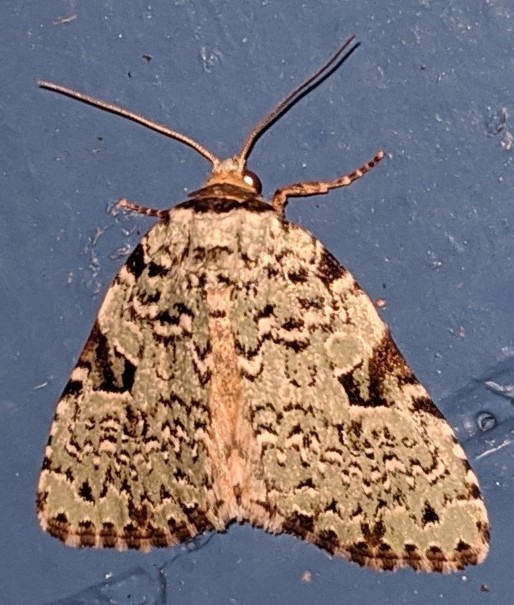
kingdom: Animalia
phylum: Arthropoda
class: Insecta
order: Lepidoptera
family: Noctuidae
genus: Leuconycta
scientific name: Leuconycta diphteroides
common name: Green leuconycta moth
